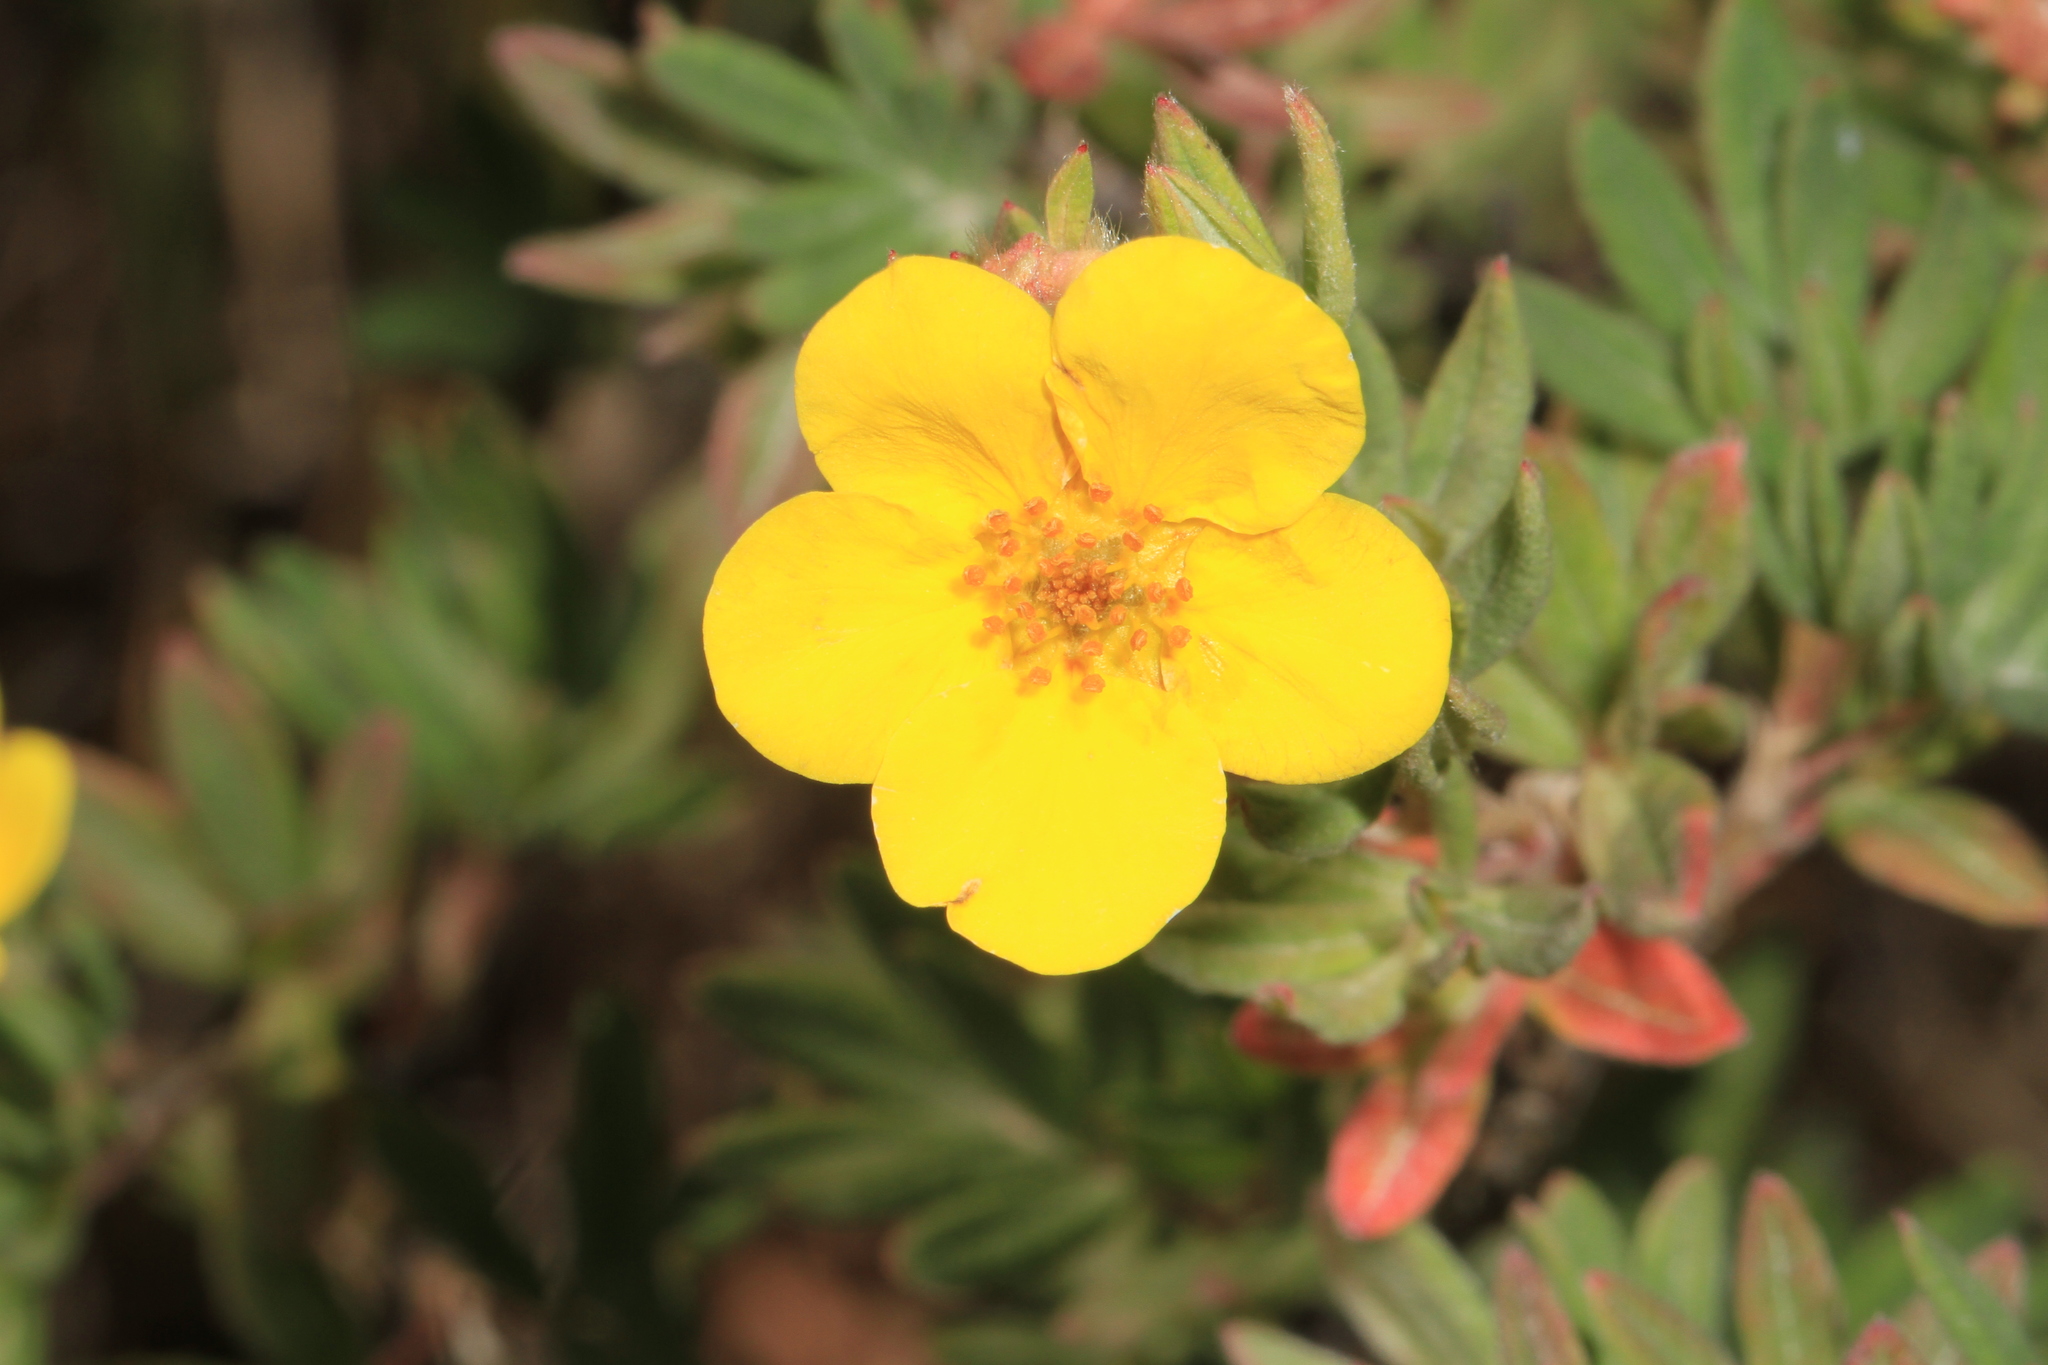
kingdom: Plantae
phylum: Tracheophyta
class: Magnoliopsida
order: Rosales
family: Rosaceae
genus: Dasiphora
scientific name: Dasiphora fruticosa
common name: Shrubby cinquefoil
